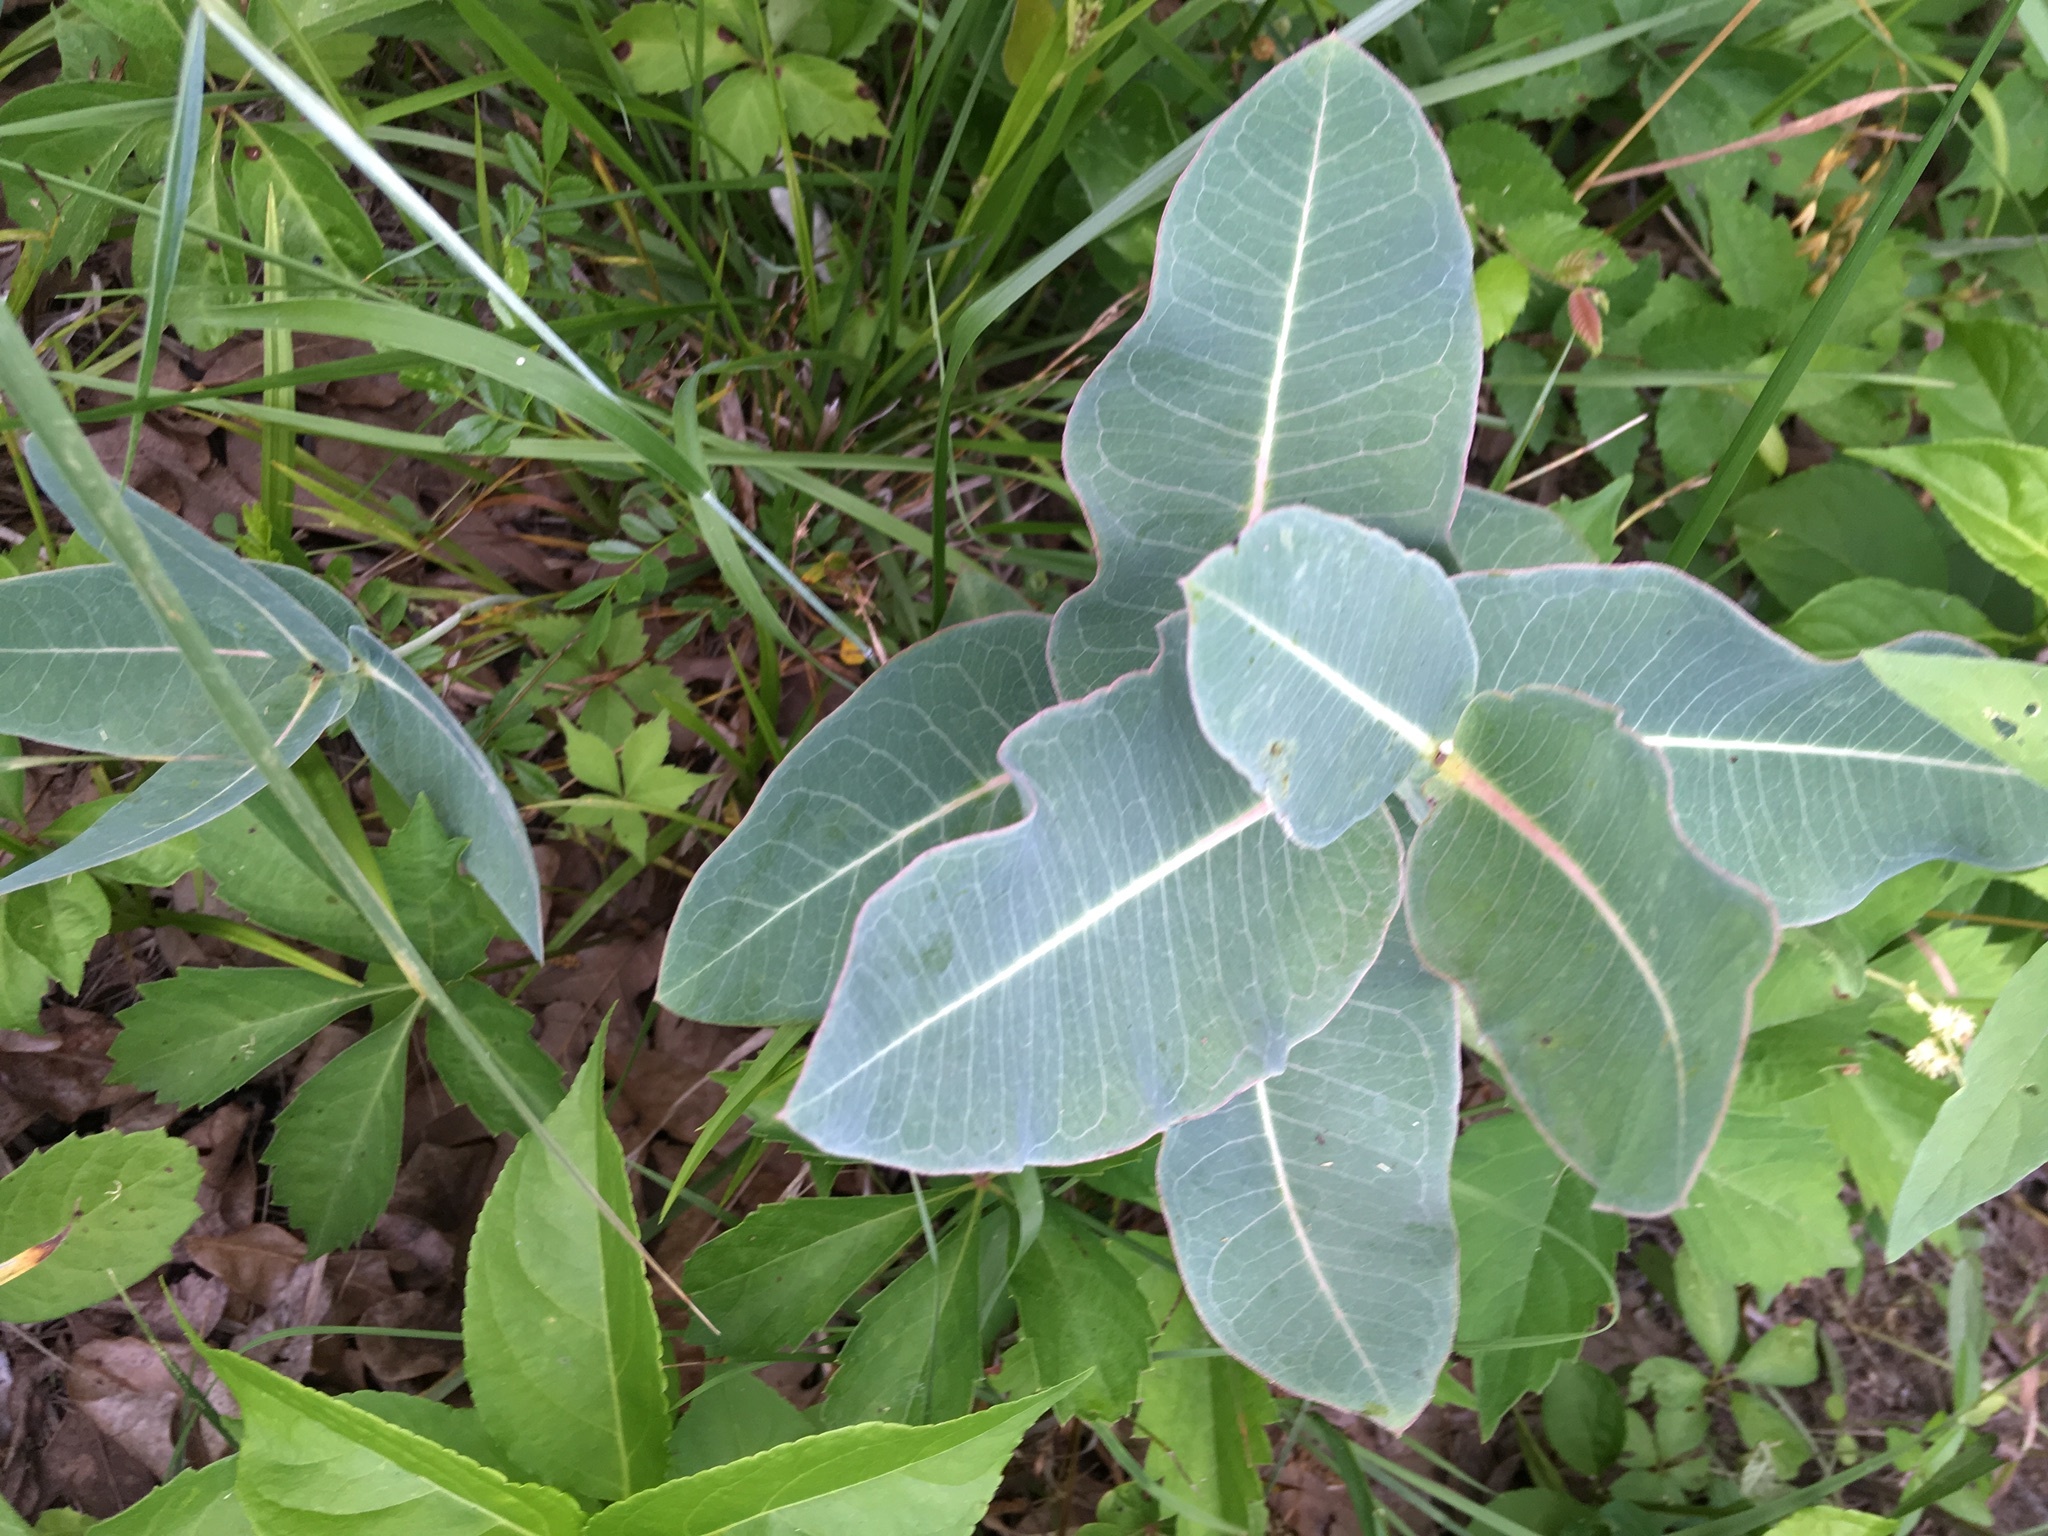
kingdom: Plantae
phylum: Tracheophyta
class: Magnoliopsida
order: Gentianales
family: Apocynaceae
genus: Asclepias
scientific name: Asclepias amplexicaulis
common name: Blunt-leaf milkweed
